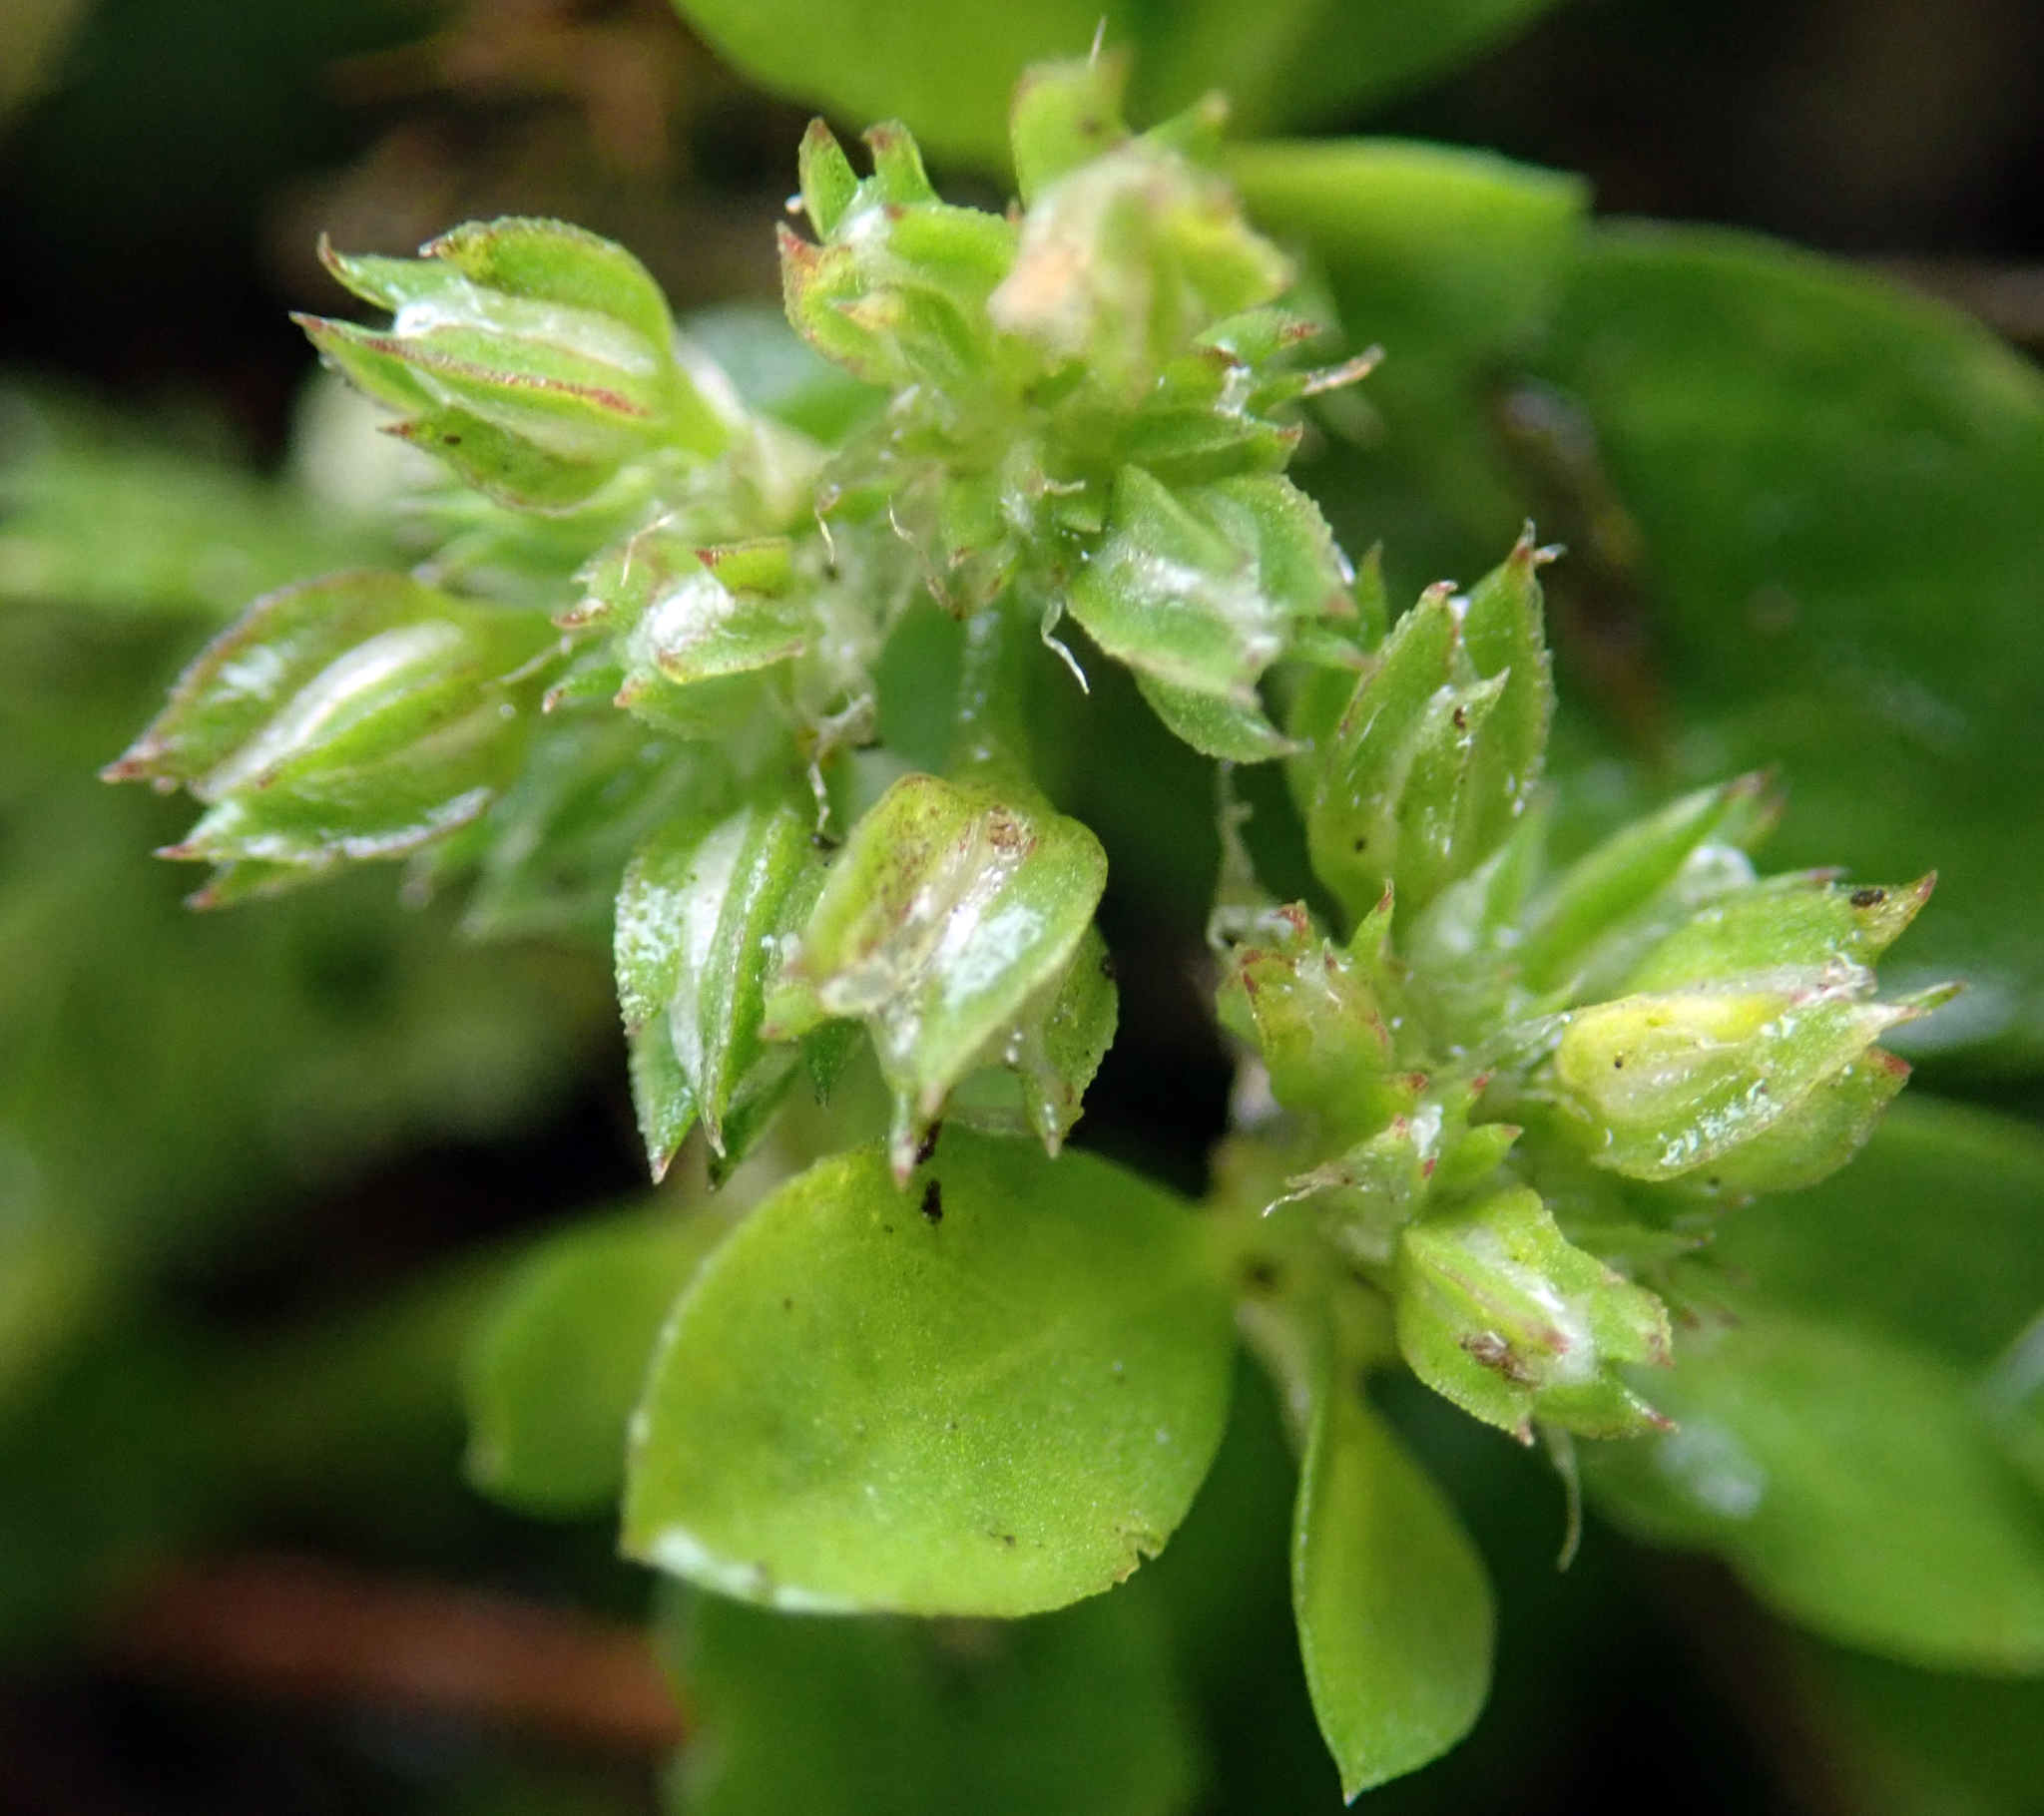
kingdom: Plantae
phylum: Tracheophyta
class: Magnoliopsida
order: Caryophyllales
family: Caryophyllaceae
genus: Polycarpon
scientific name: Polycarpon tetraphyllum
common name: Four-leaved all-seed
